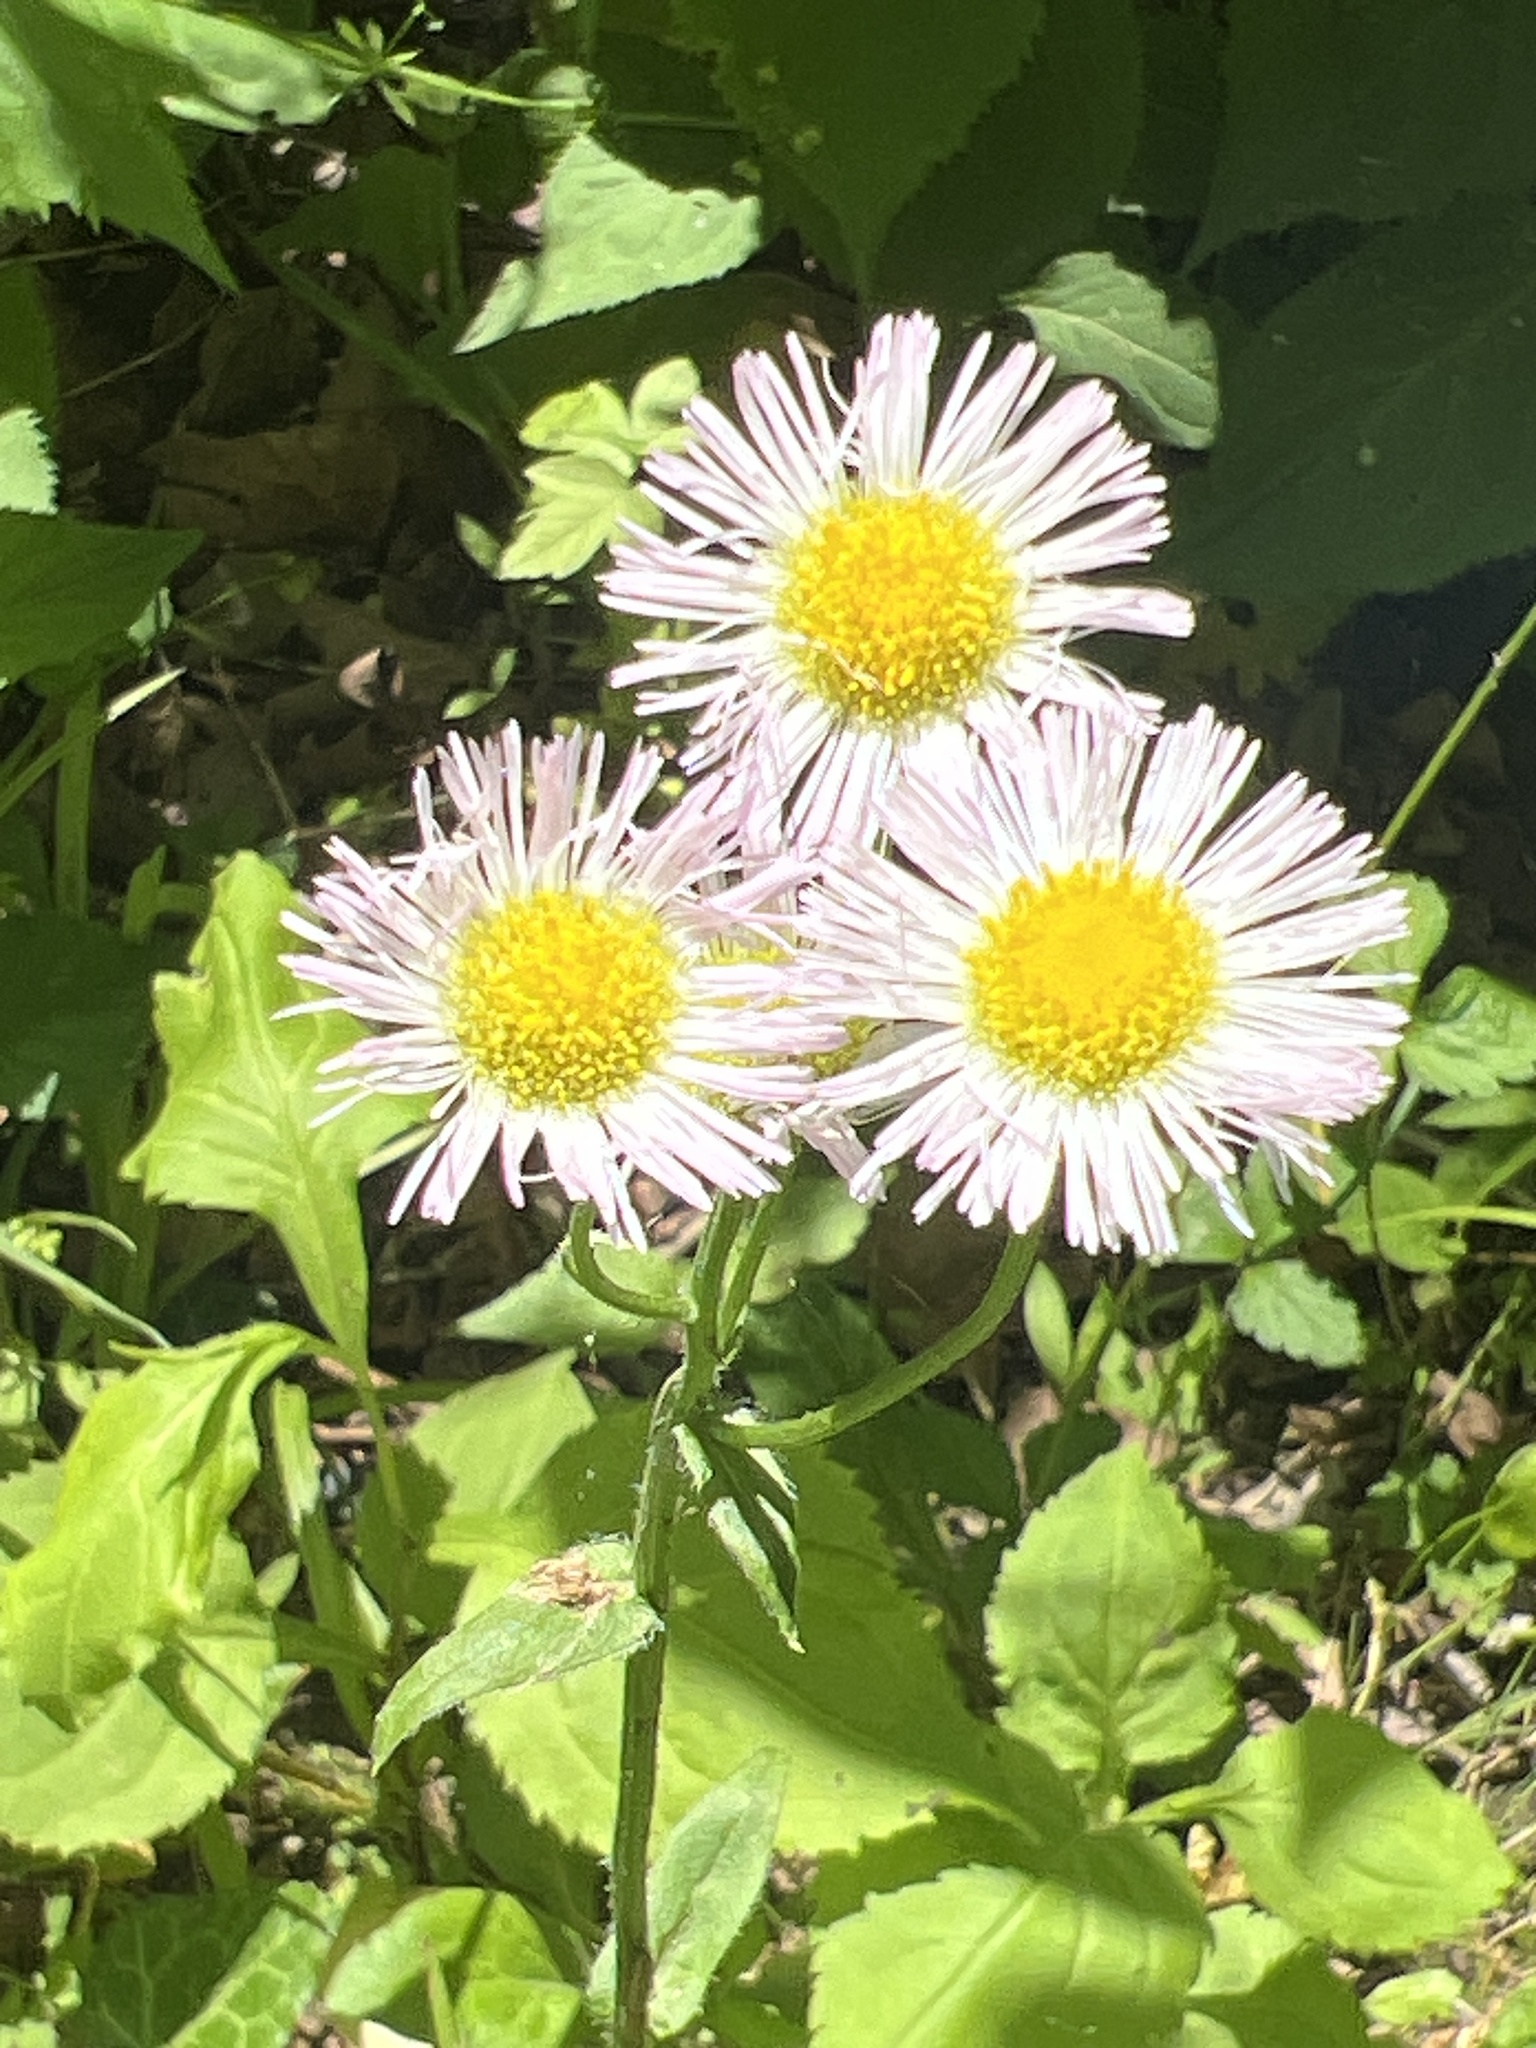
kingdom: Plantae
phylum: Tracheophyta
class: Magnoliopsida
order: Asterales
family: Asteraceae
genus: Erigeron
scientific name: Erigeron philadelphicus
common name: Robin's-plantain
